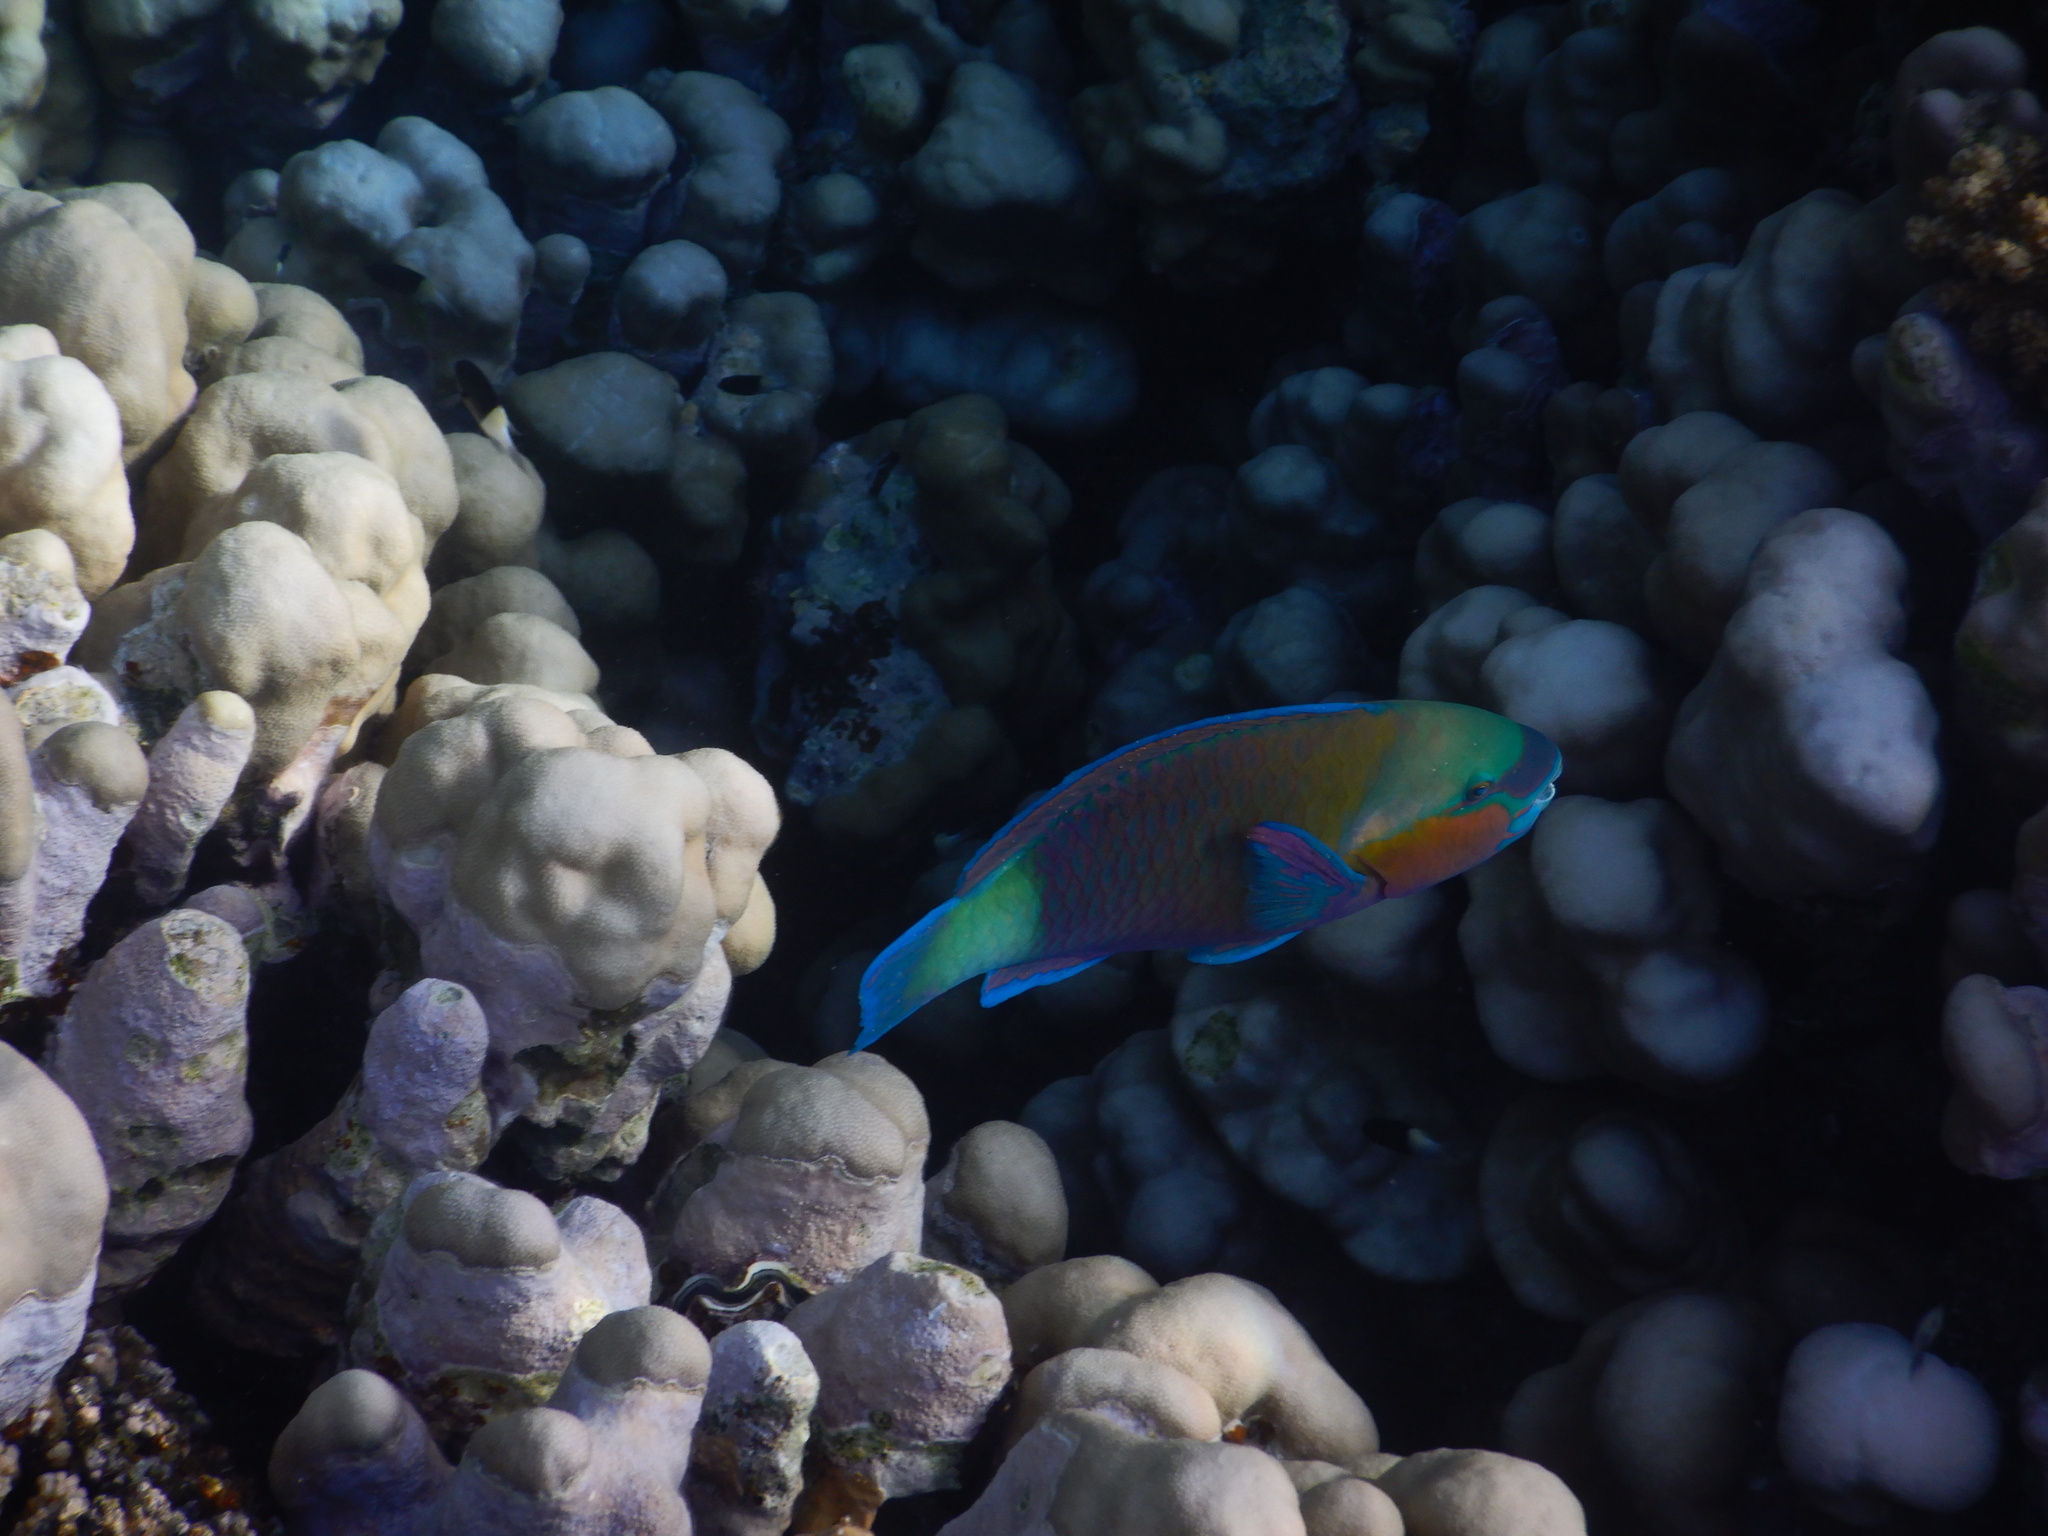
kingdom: Animalia
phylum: Chordata
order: Perciformes
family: Scaridae
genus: Chlorurus
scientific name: Chlorurus sordidus
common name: Bullethead parrotfish
